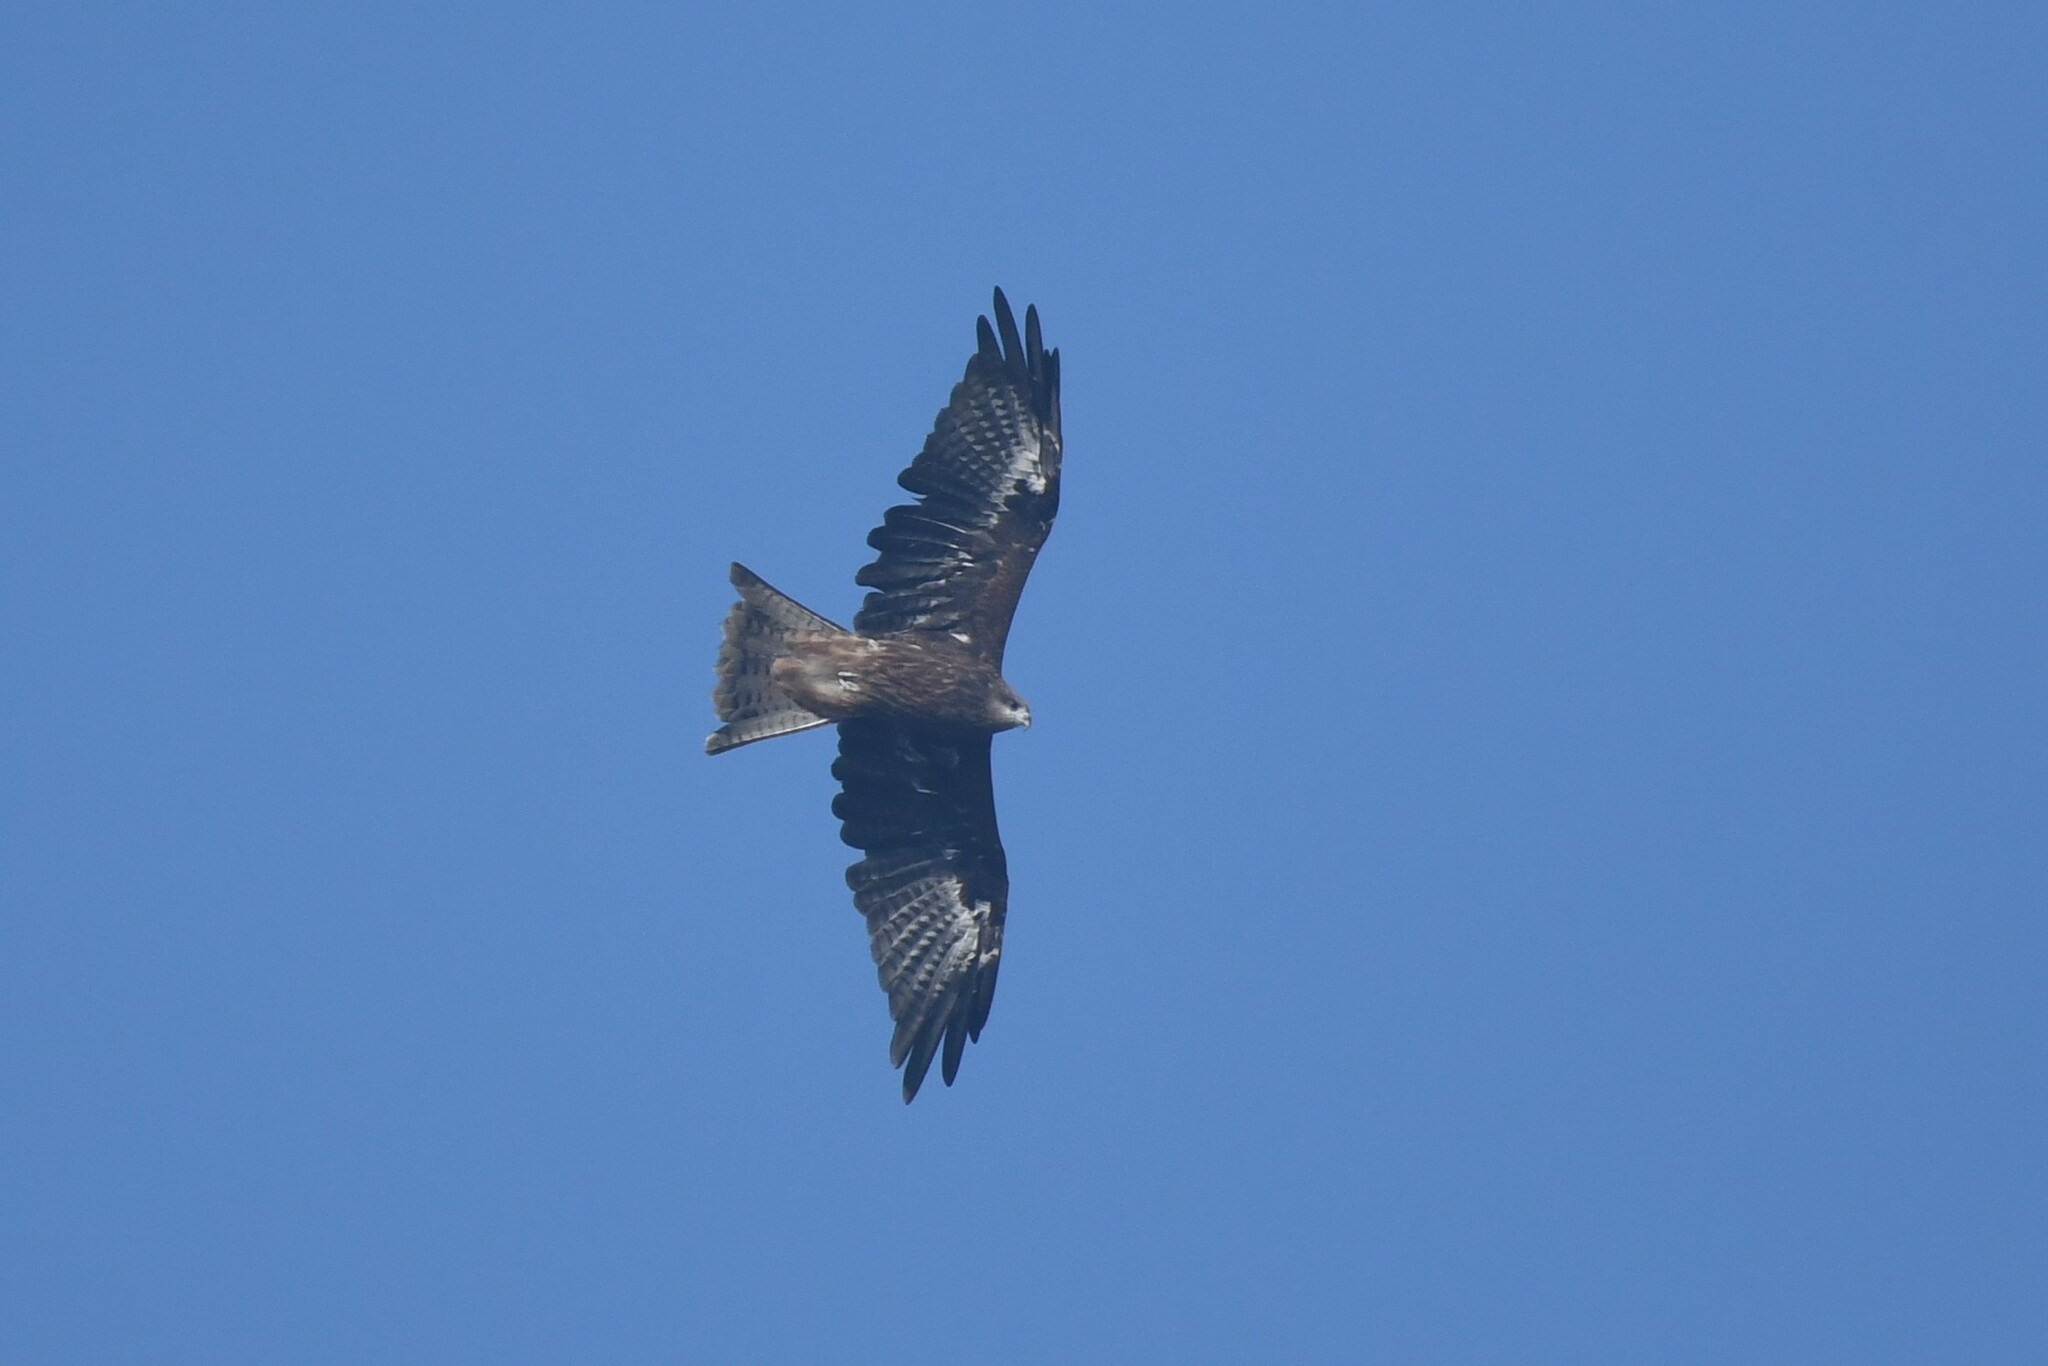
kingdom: Animalia
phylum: Chordata
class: Aves
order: Accipitriformes
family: Accipitridae
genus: Milvus
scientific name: Milvus migrans
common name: Black kite
